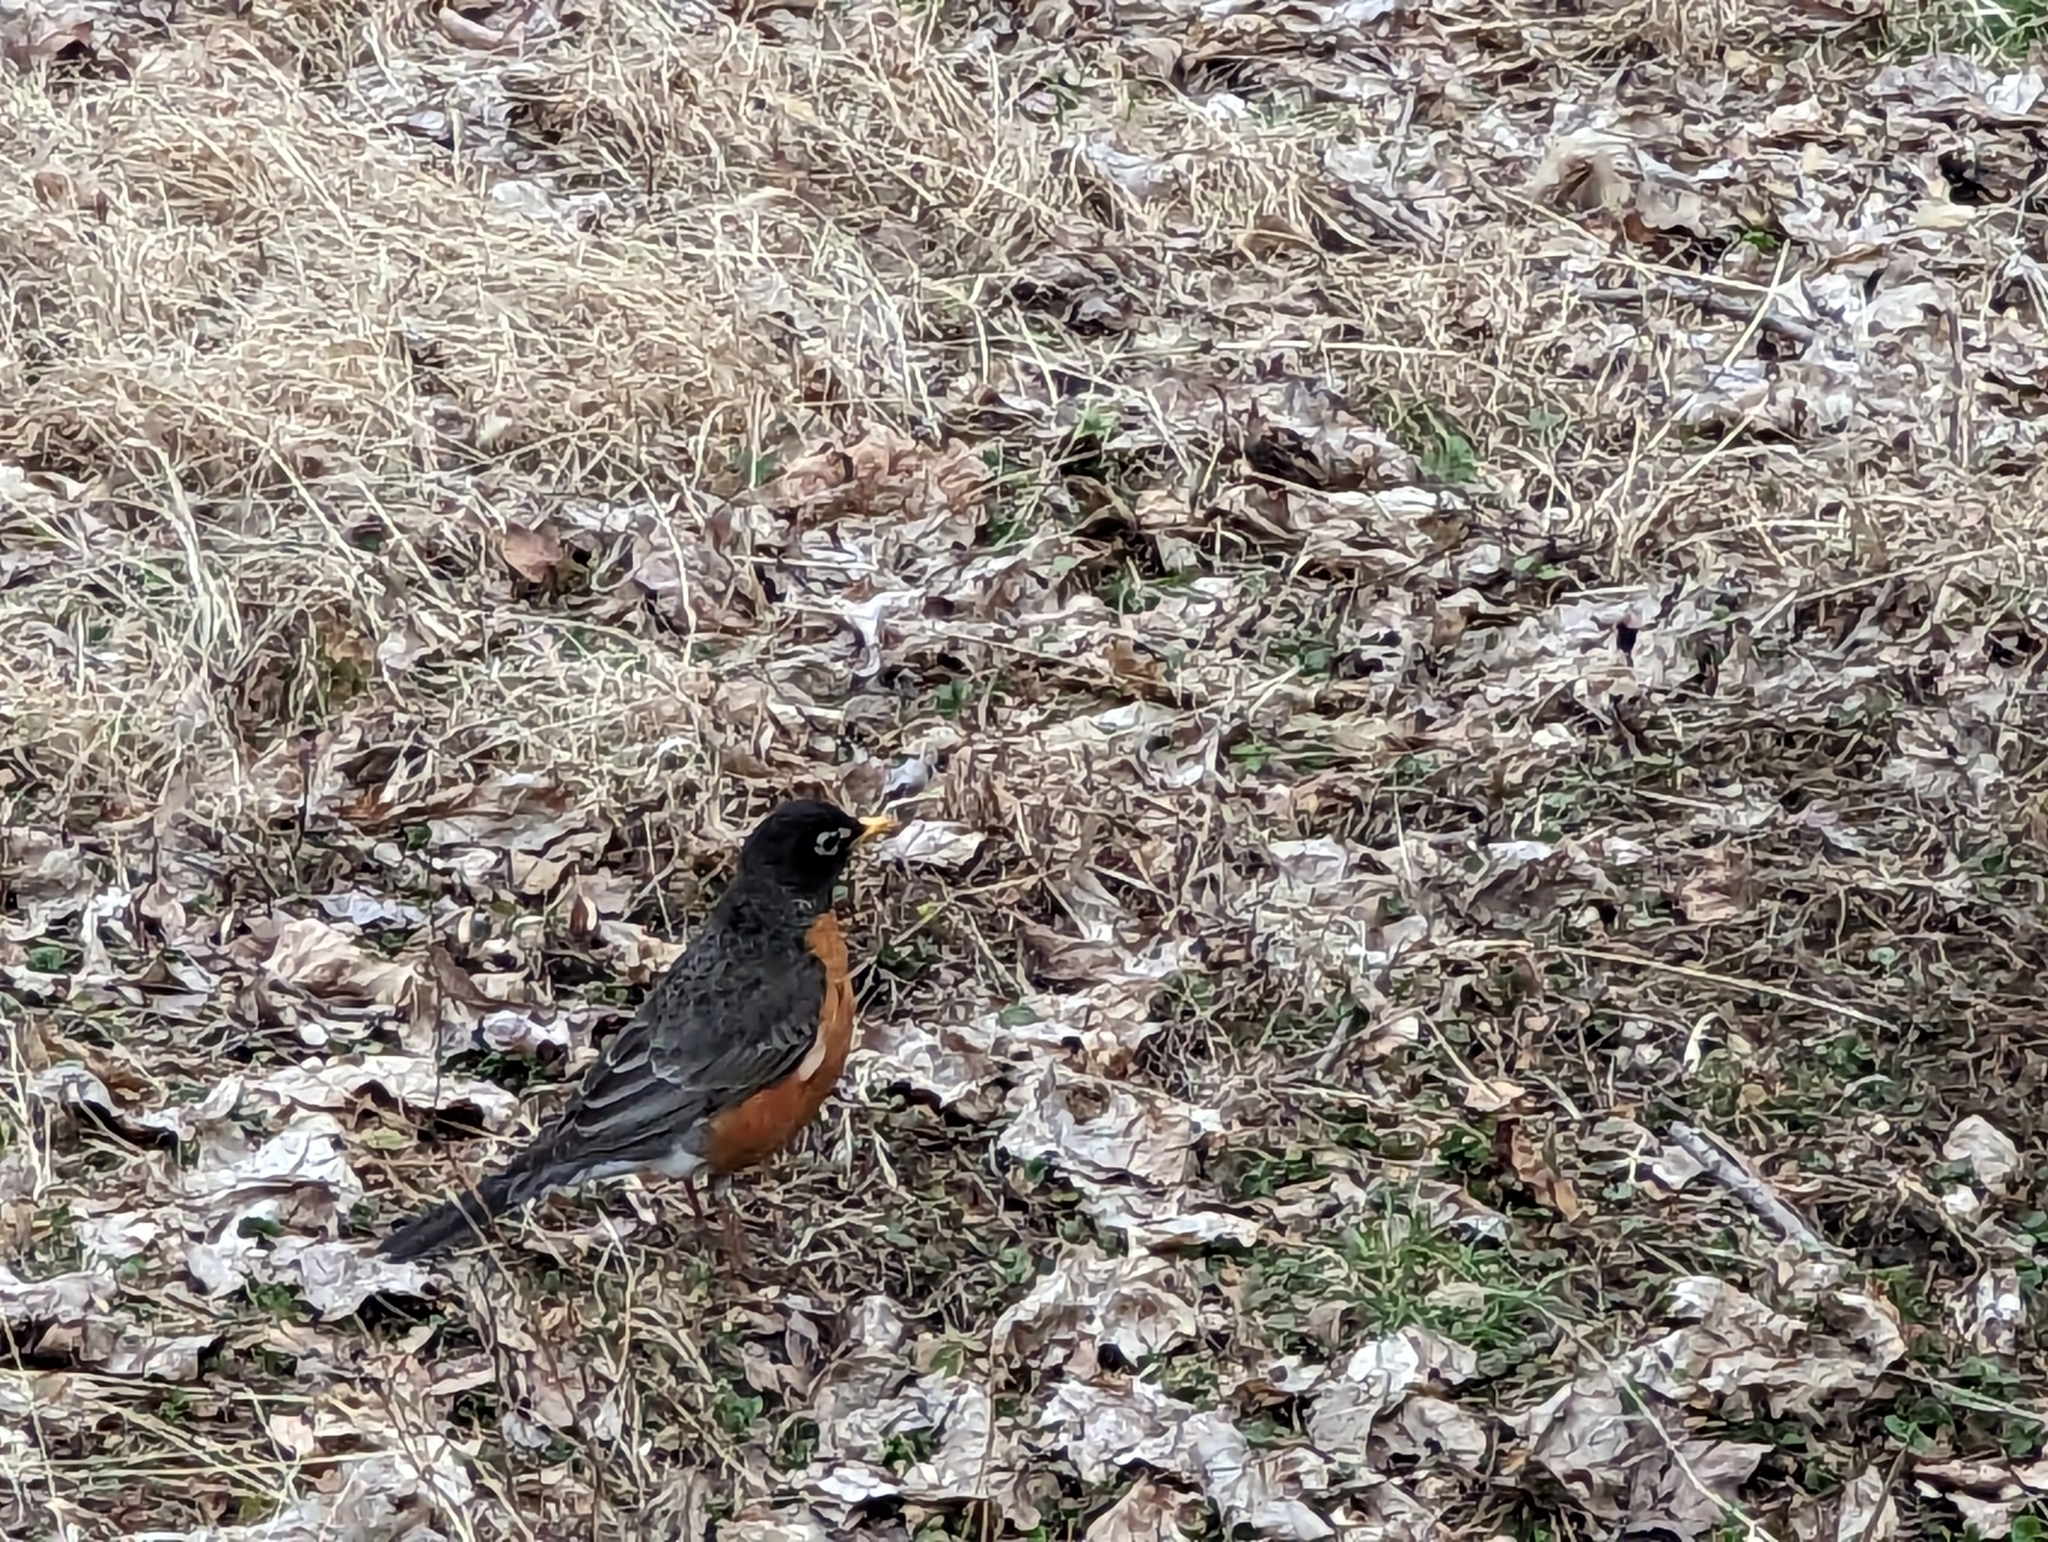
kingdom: Animalia
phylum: Chordata
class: Aves
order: Passeriformes
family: Turdidae
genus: Turdus
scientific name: Turdus migratorius
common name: American robin
